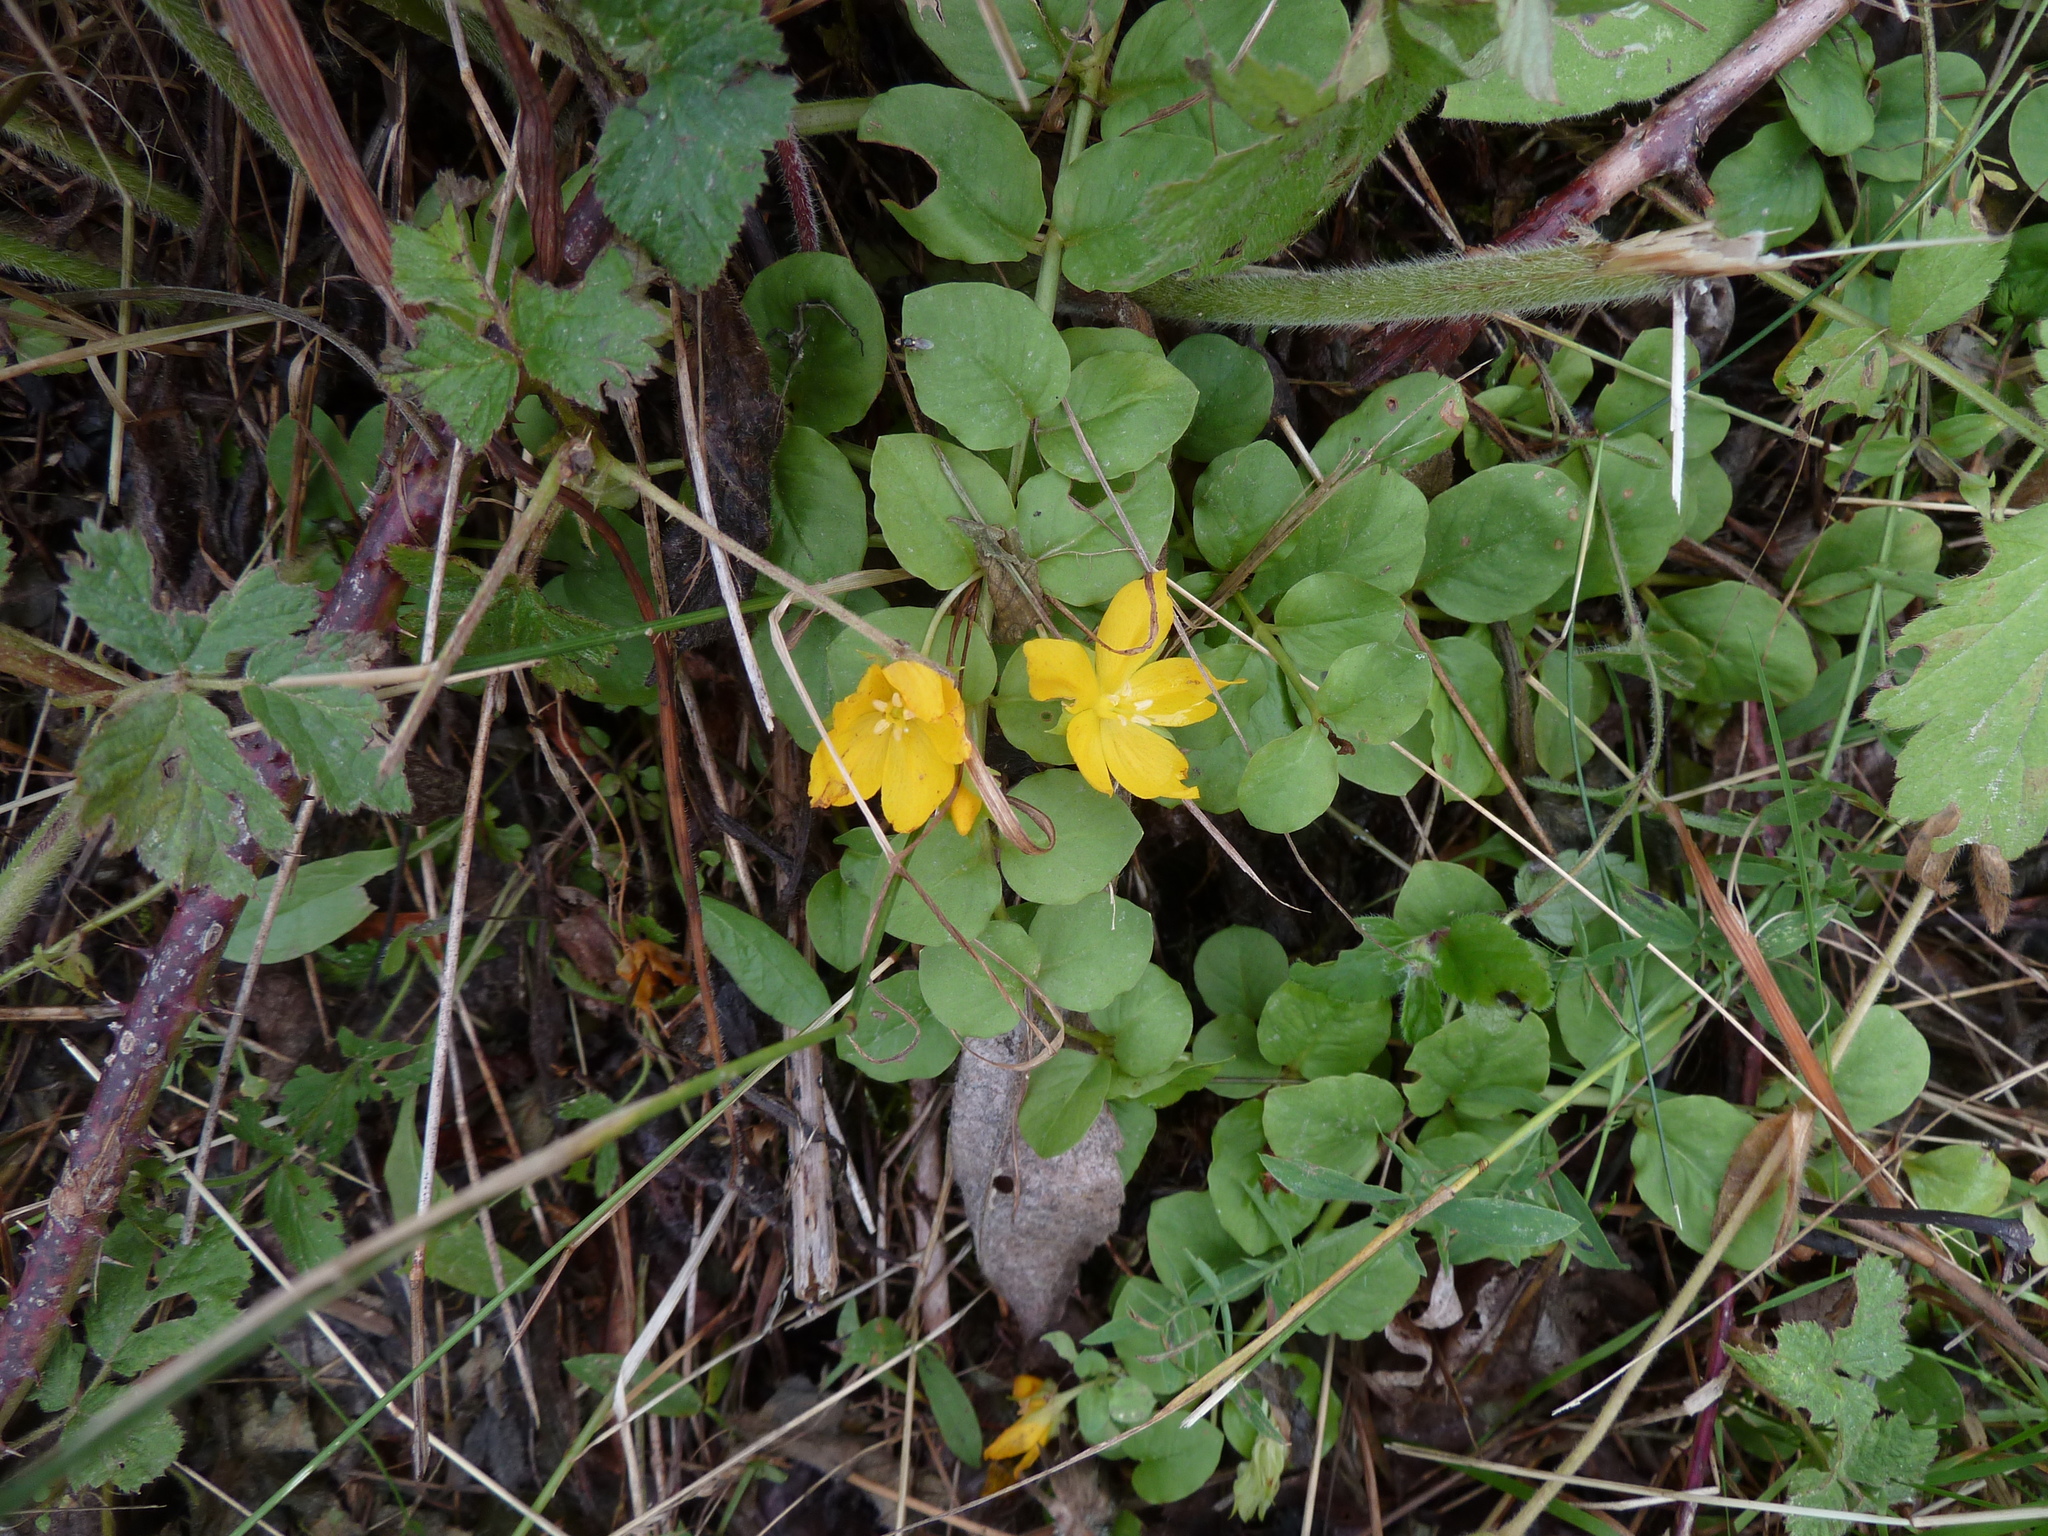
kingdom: Plantae
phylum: Tracheophyta
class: Magnoliopsida
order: Ericales
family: Primulaceae
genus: Lysimachia
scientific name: Lysimachia nummularia
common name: Moneywort
